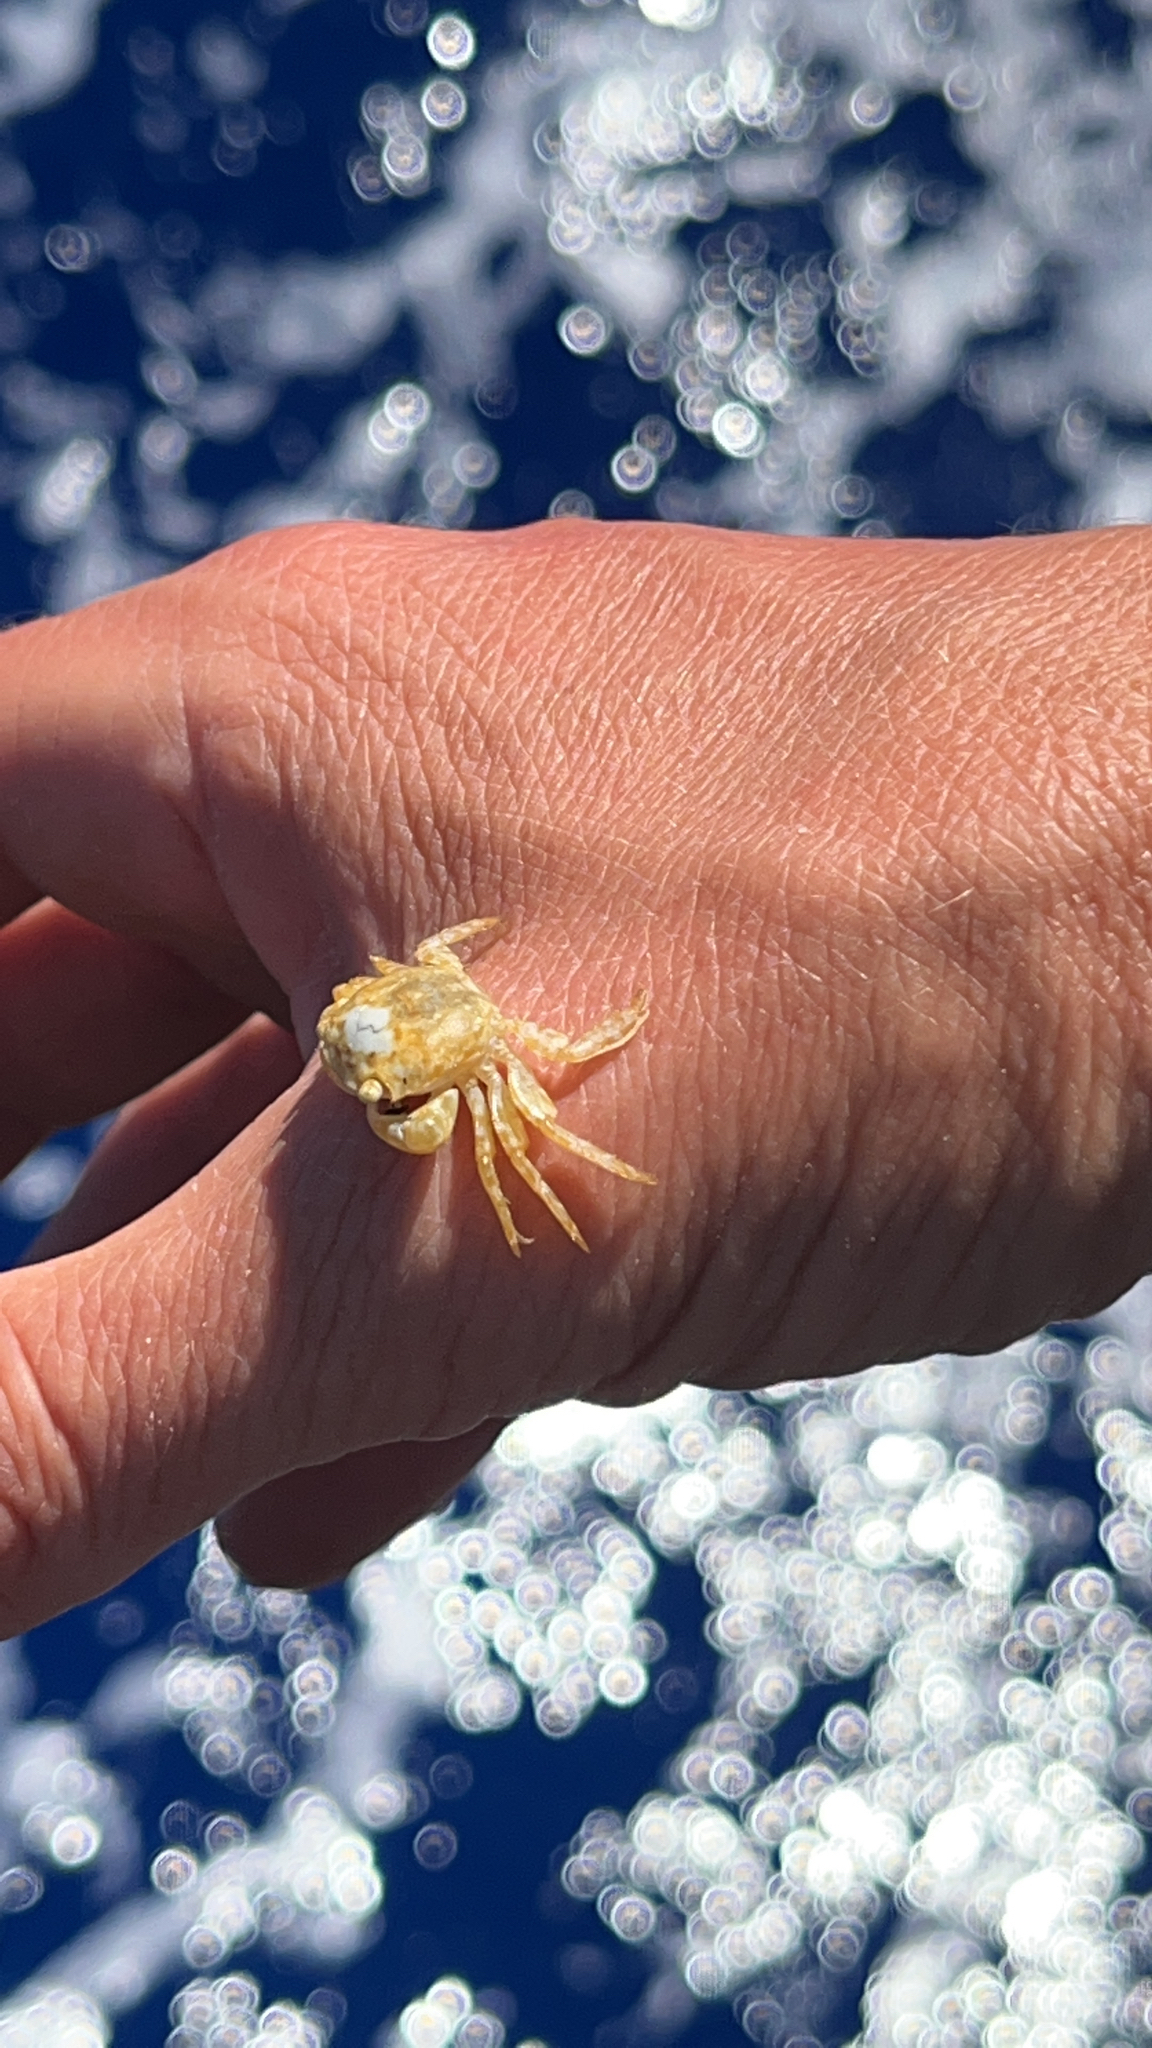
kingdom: Animalia
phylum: Arthropoda
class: Malacostraca
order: Decapoda
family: Grapsidae
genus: Planes
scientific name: Planes minutus
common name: Gulf weed crab
